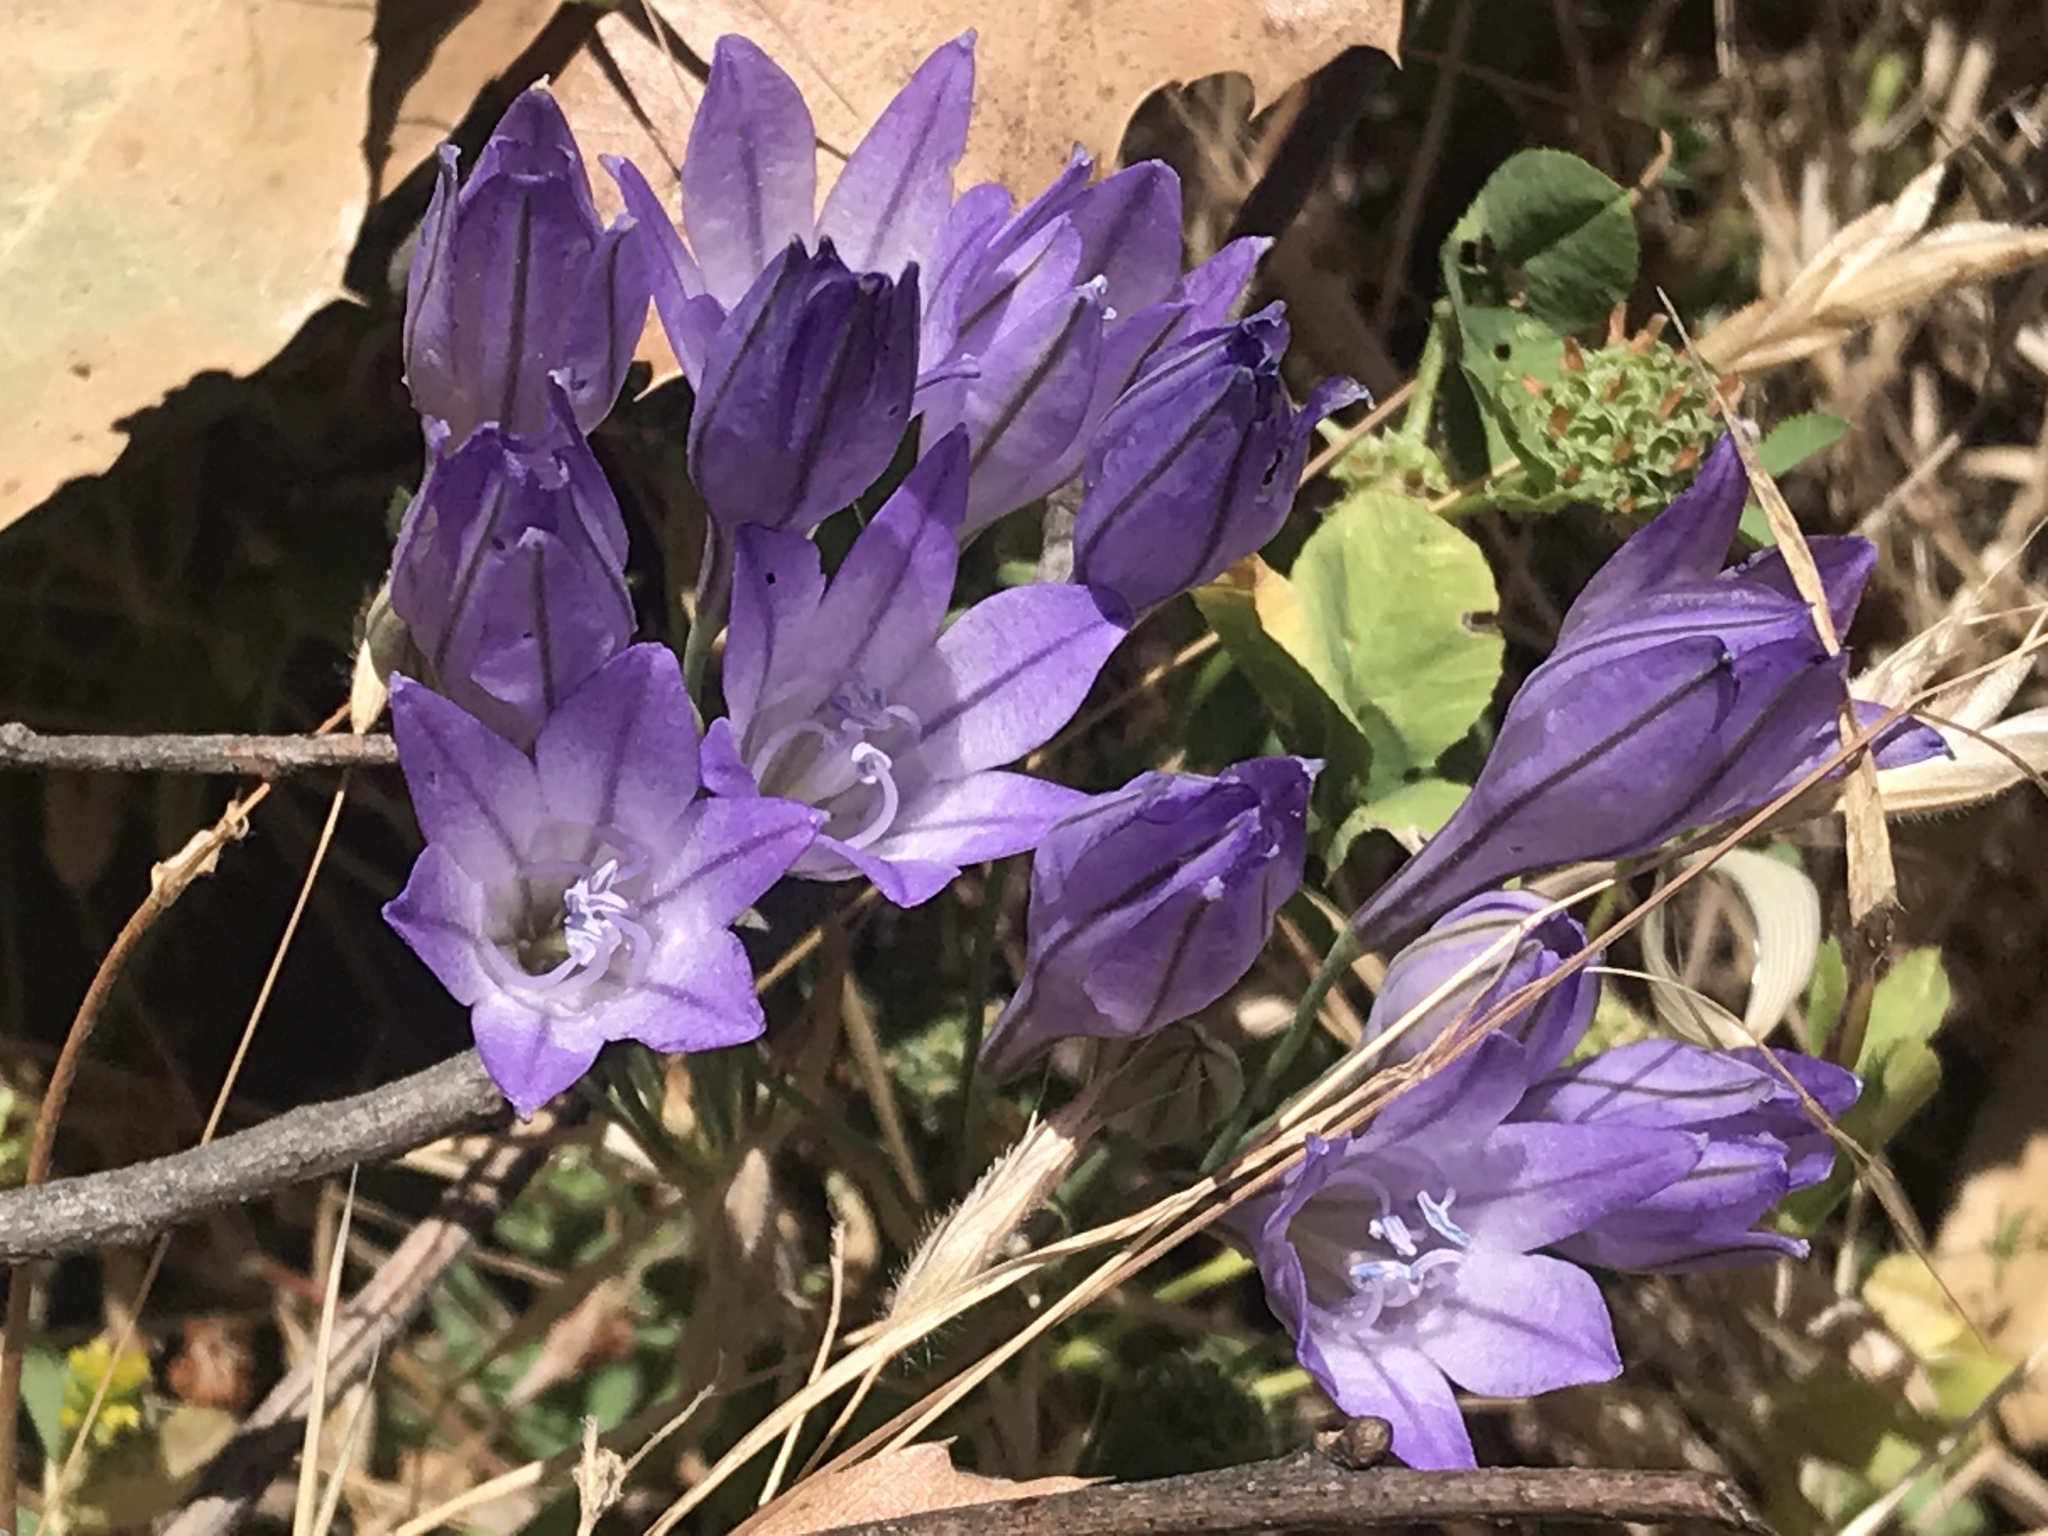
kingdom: Plantae
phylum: Tracheophyta
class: Liliopsida
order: Asparagales
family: Asparagaceae
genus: Triteleia
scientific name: Triteleia laxa
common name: Triplet-lily
